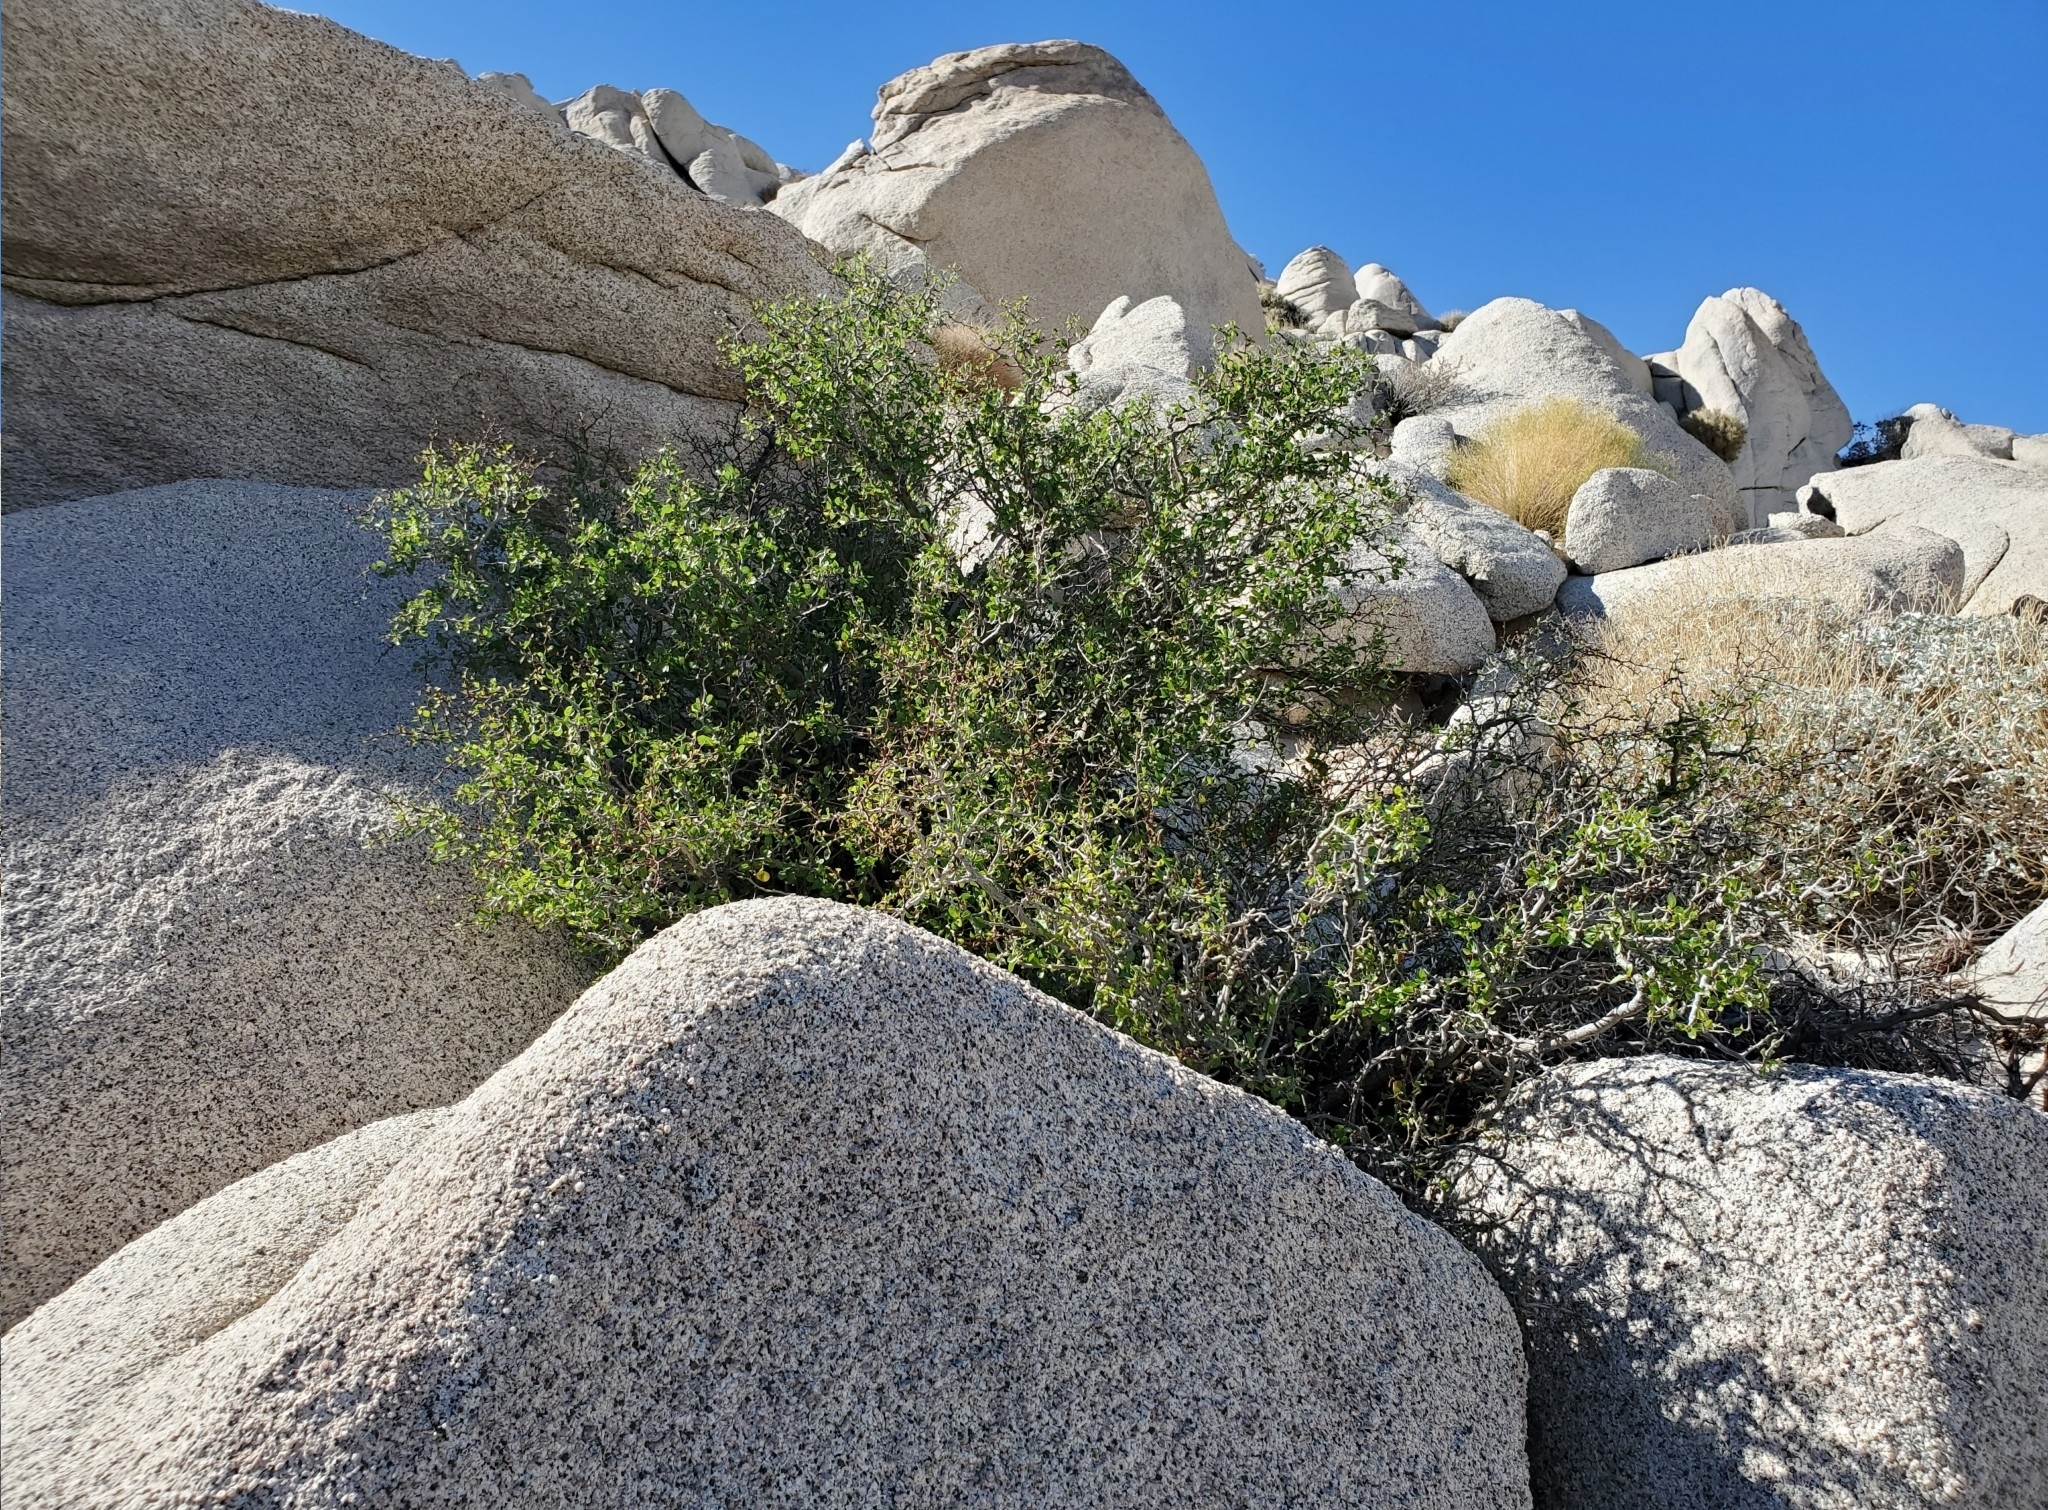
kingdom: Plantae
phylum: Tracheophyta
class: Magnoliopsida
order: Rosales
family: Rosaceae
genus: Prunus
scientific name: Prunus fremontii
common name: Desert apricot
